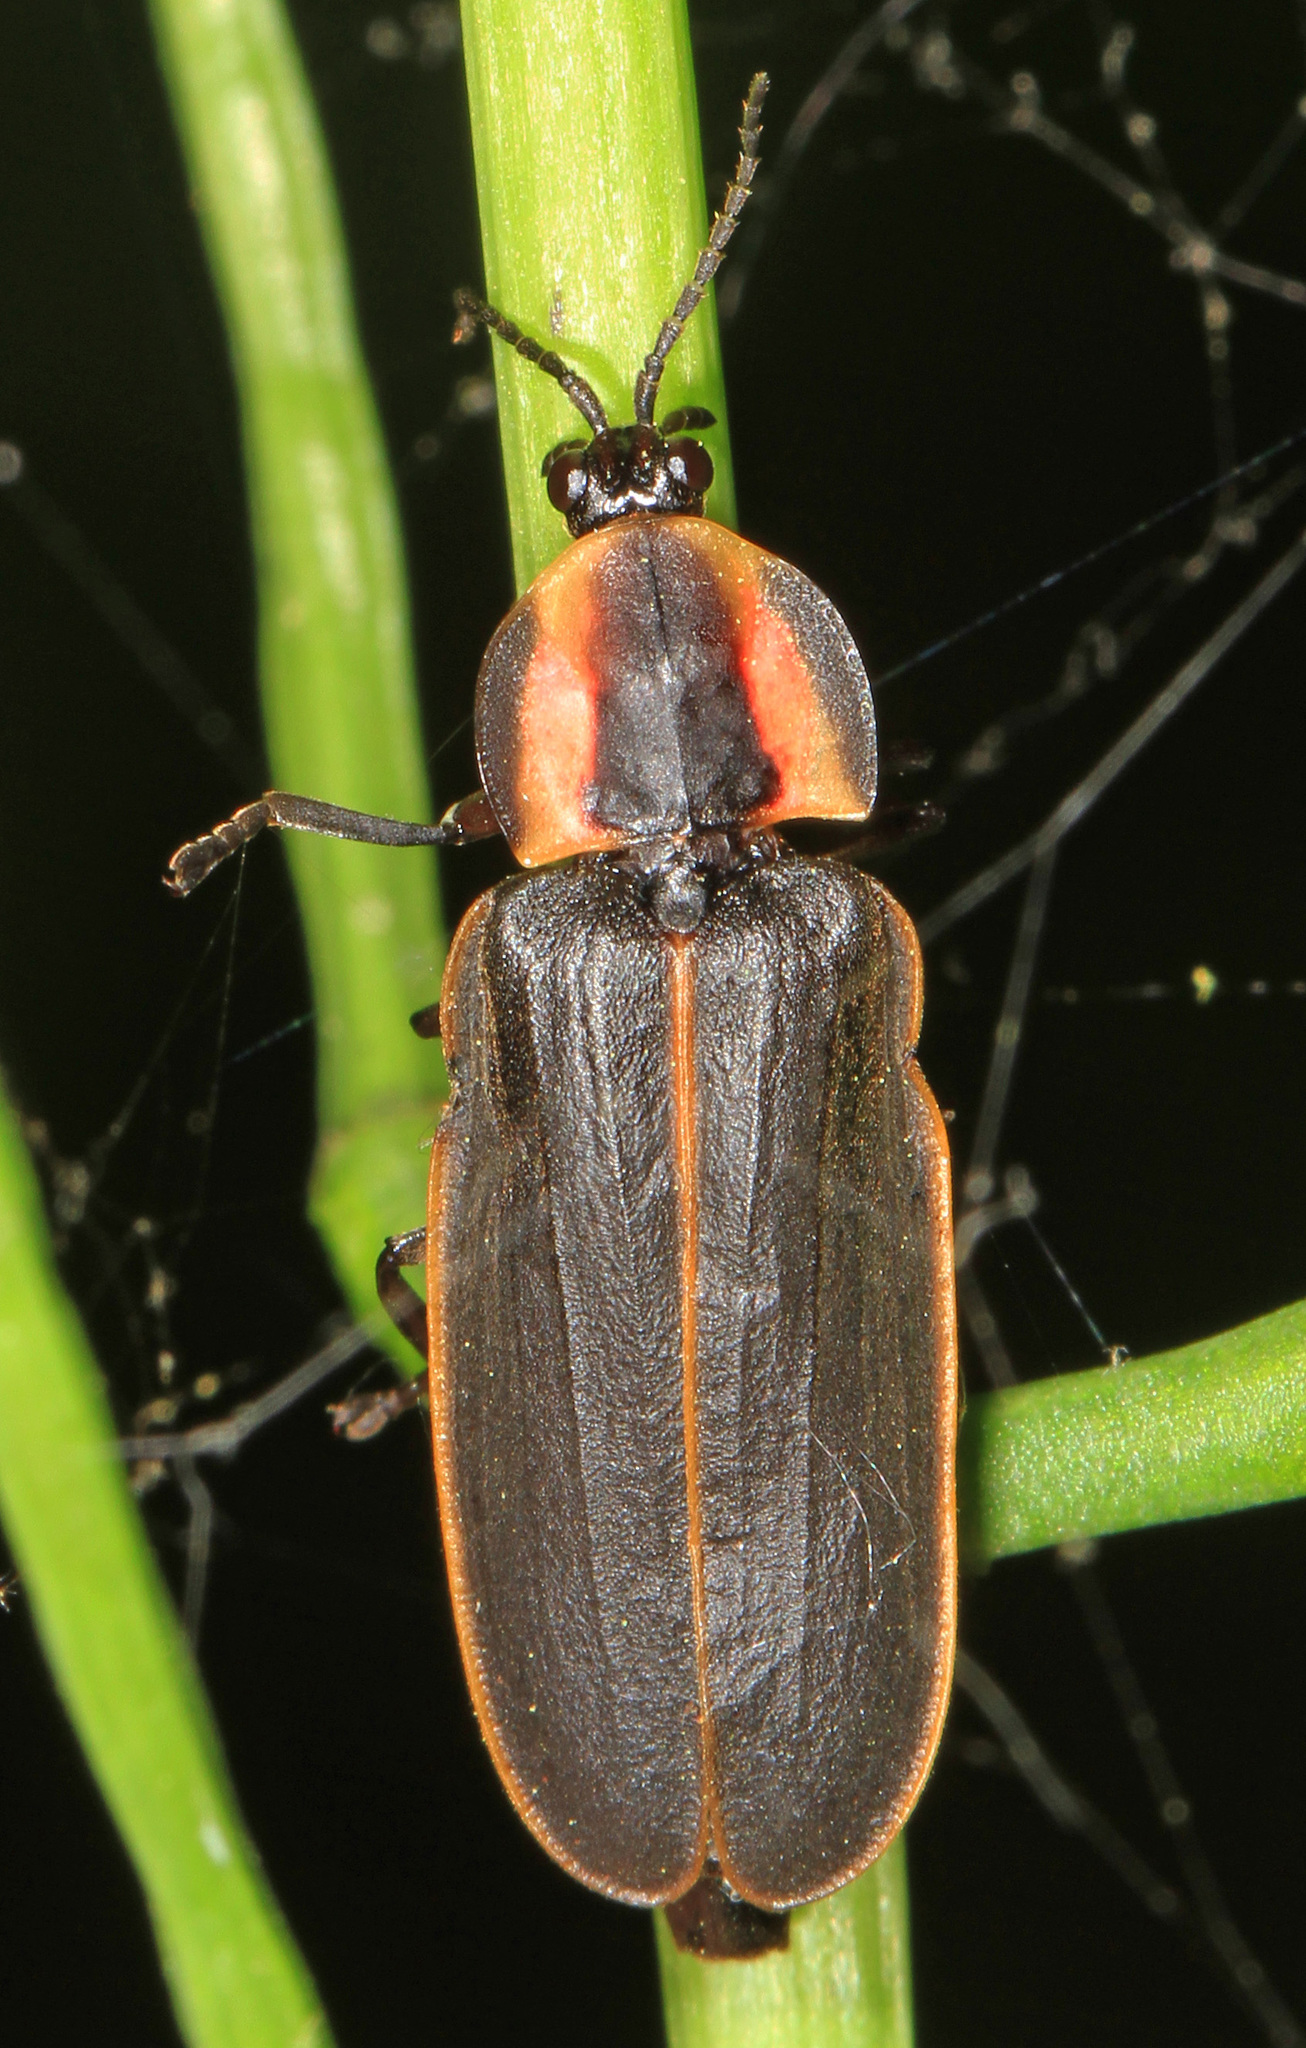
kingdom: Animalia
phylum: Arthropoda
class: Insecta
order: Coleoptera
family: Lampyridae
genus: Pyractomena
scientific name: Pyractomena borealis
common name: Northern firefly
